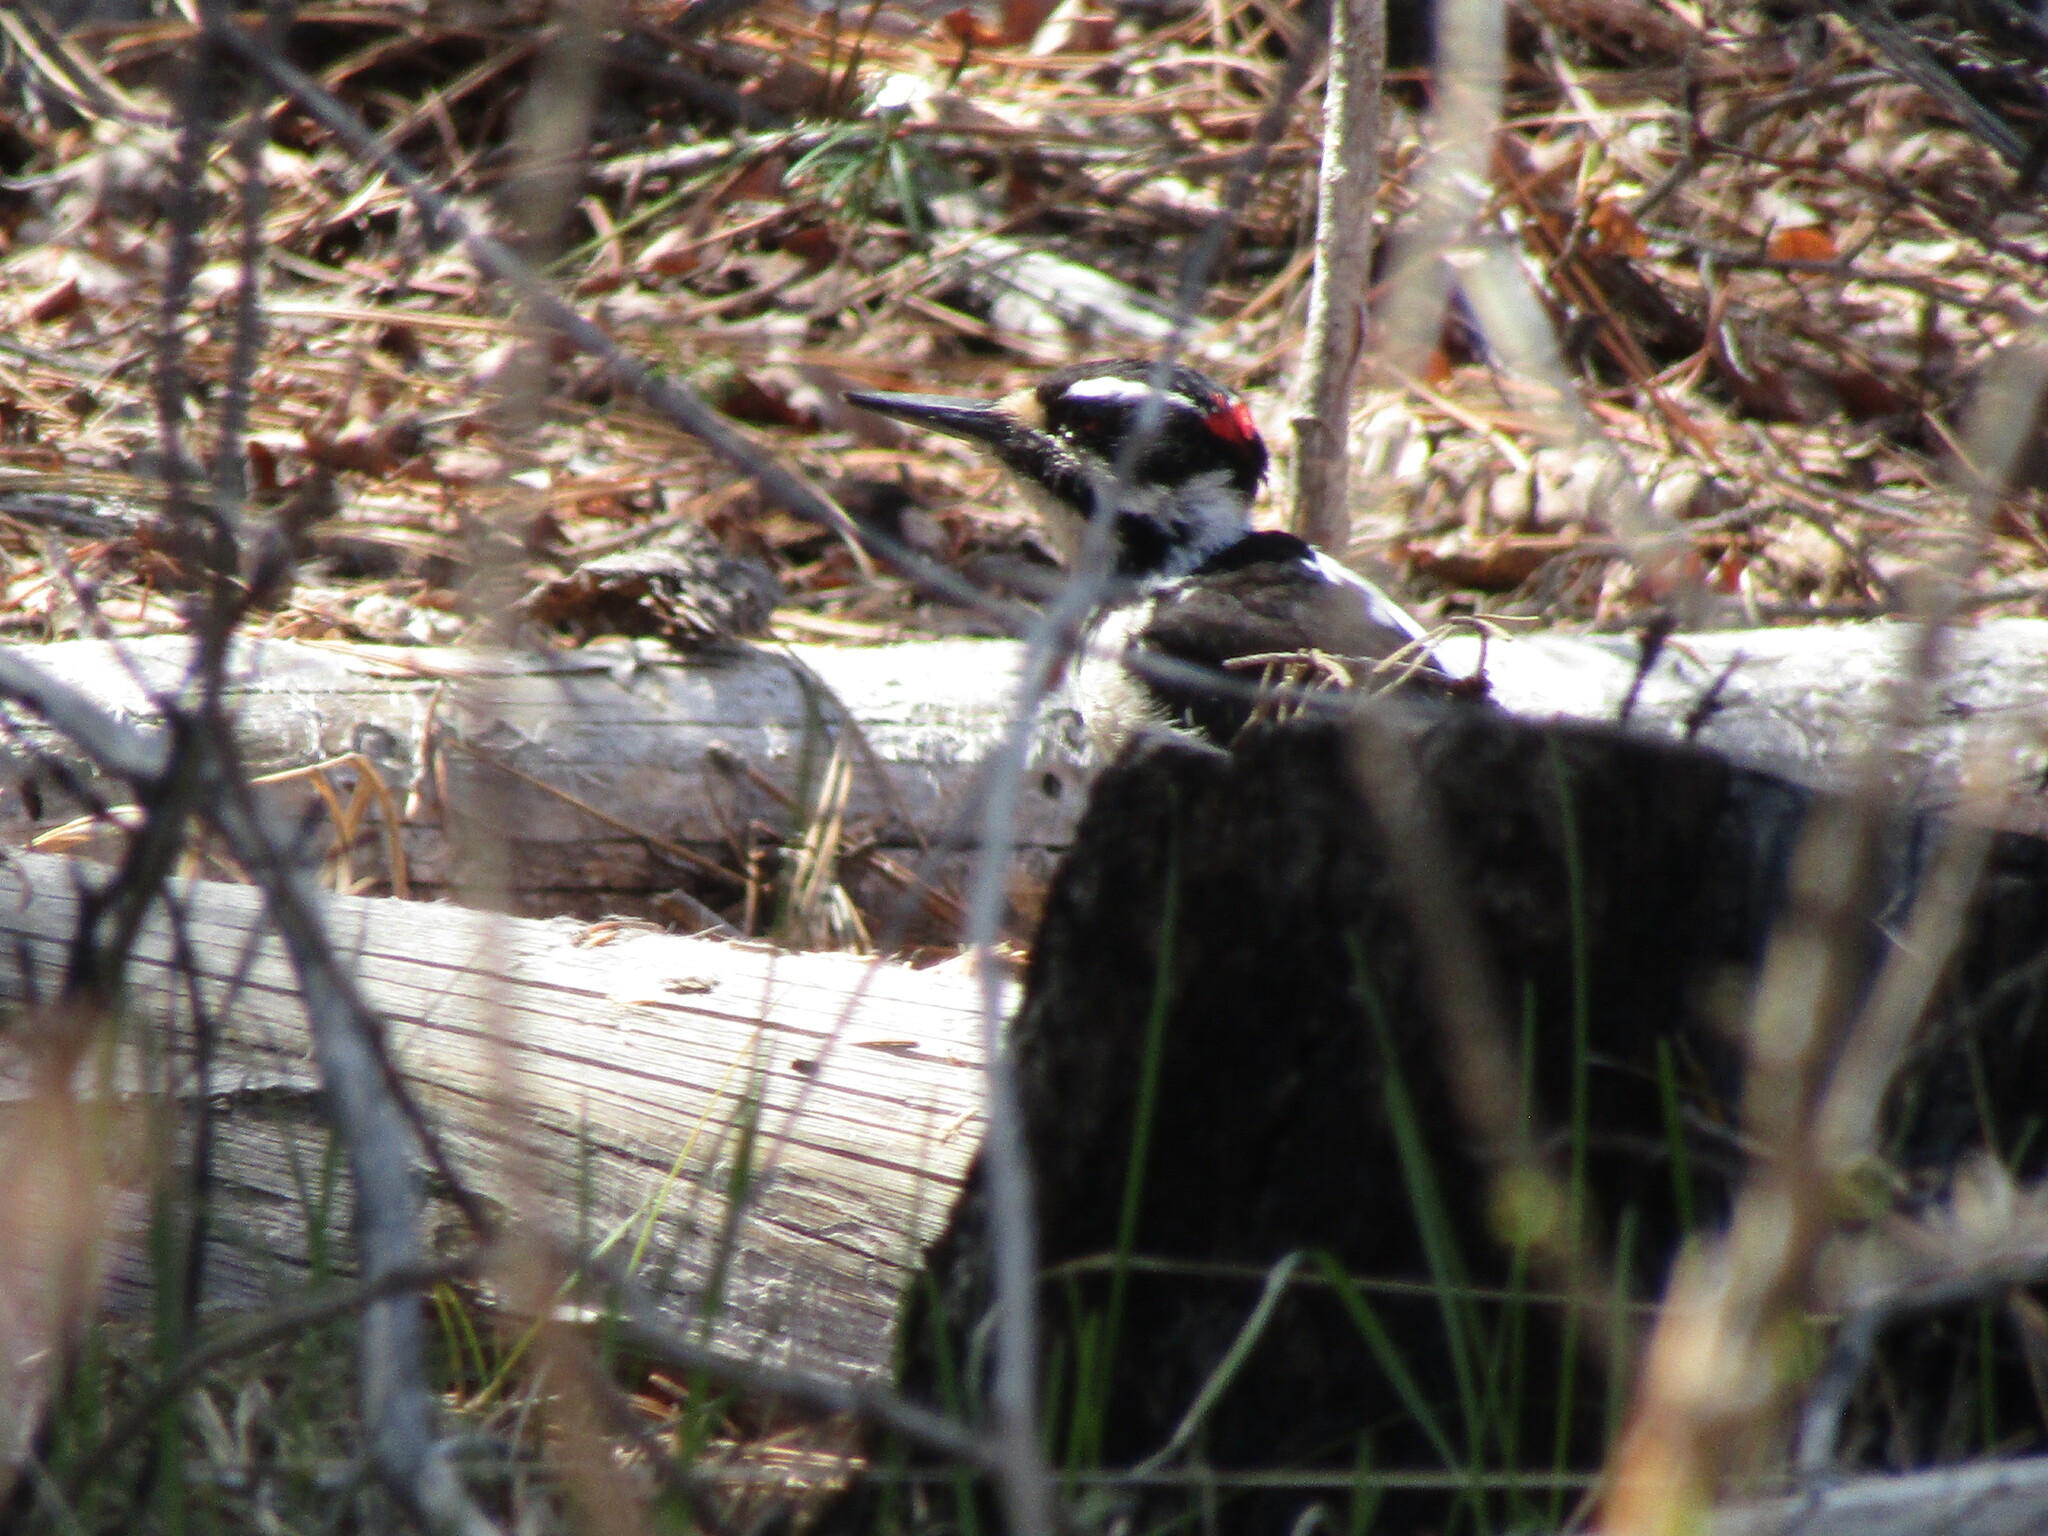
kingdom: Animalia
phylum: Chordata
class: Aves
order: Piciformes
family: Picidae
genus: Leuconotopicus
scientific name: Leuconotopicus villosus
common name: Hairy woodpecker
